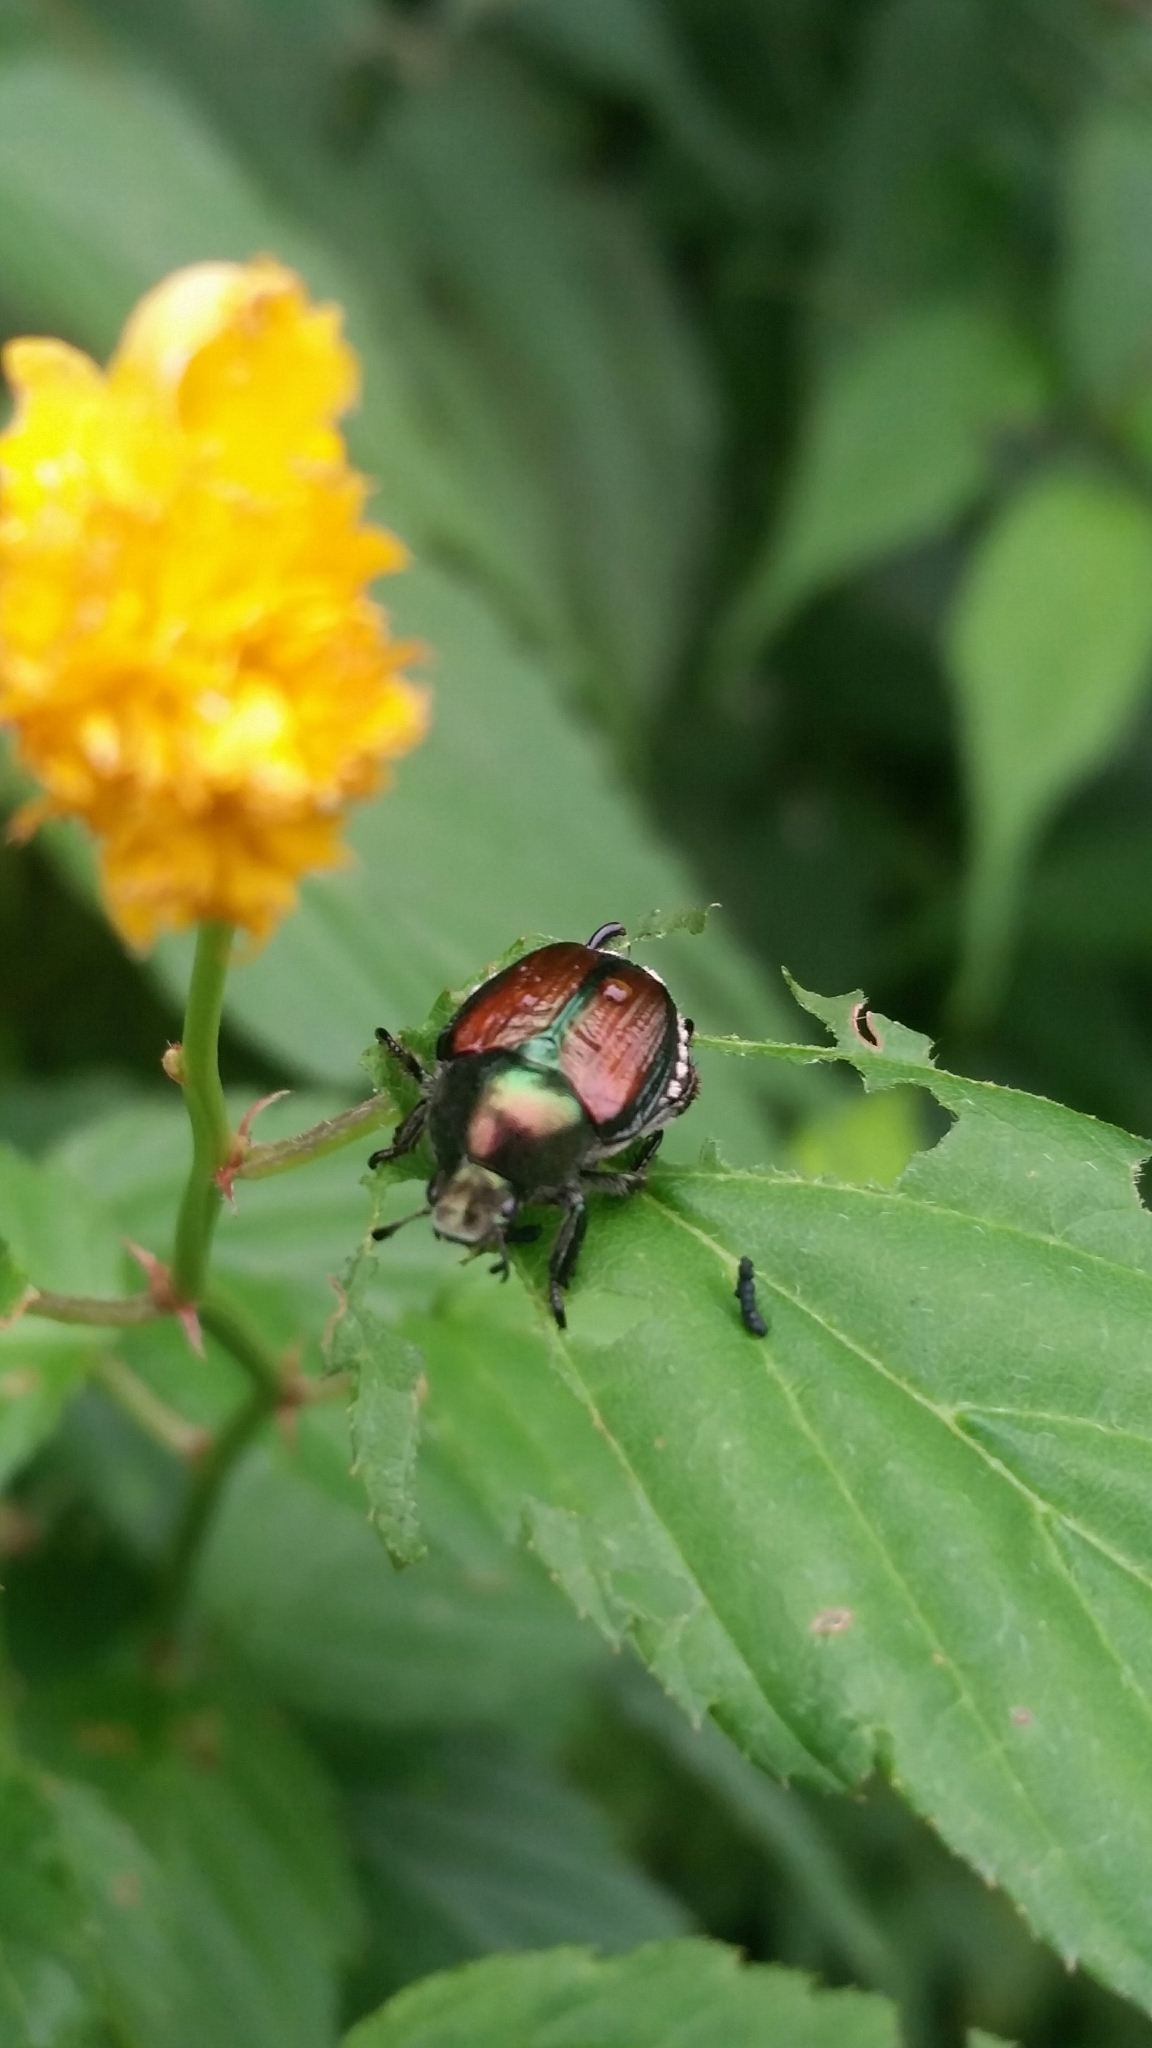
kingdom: Animalia
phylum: Arthropoda
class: Insecta
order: Coleoptera
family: Scarabaeidae
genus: Popillia
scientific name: Popillia japonica
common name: Japanese beetle
